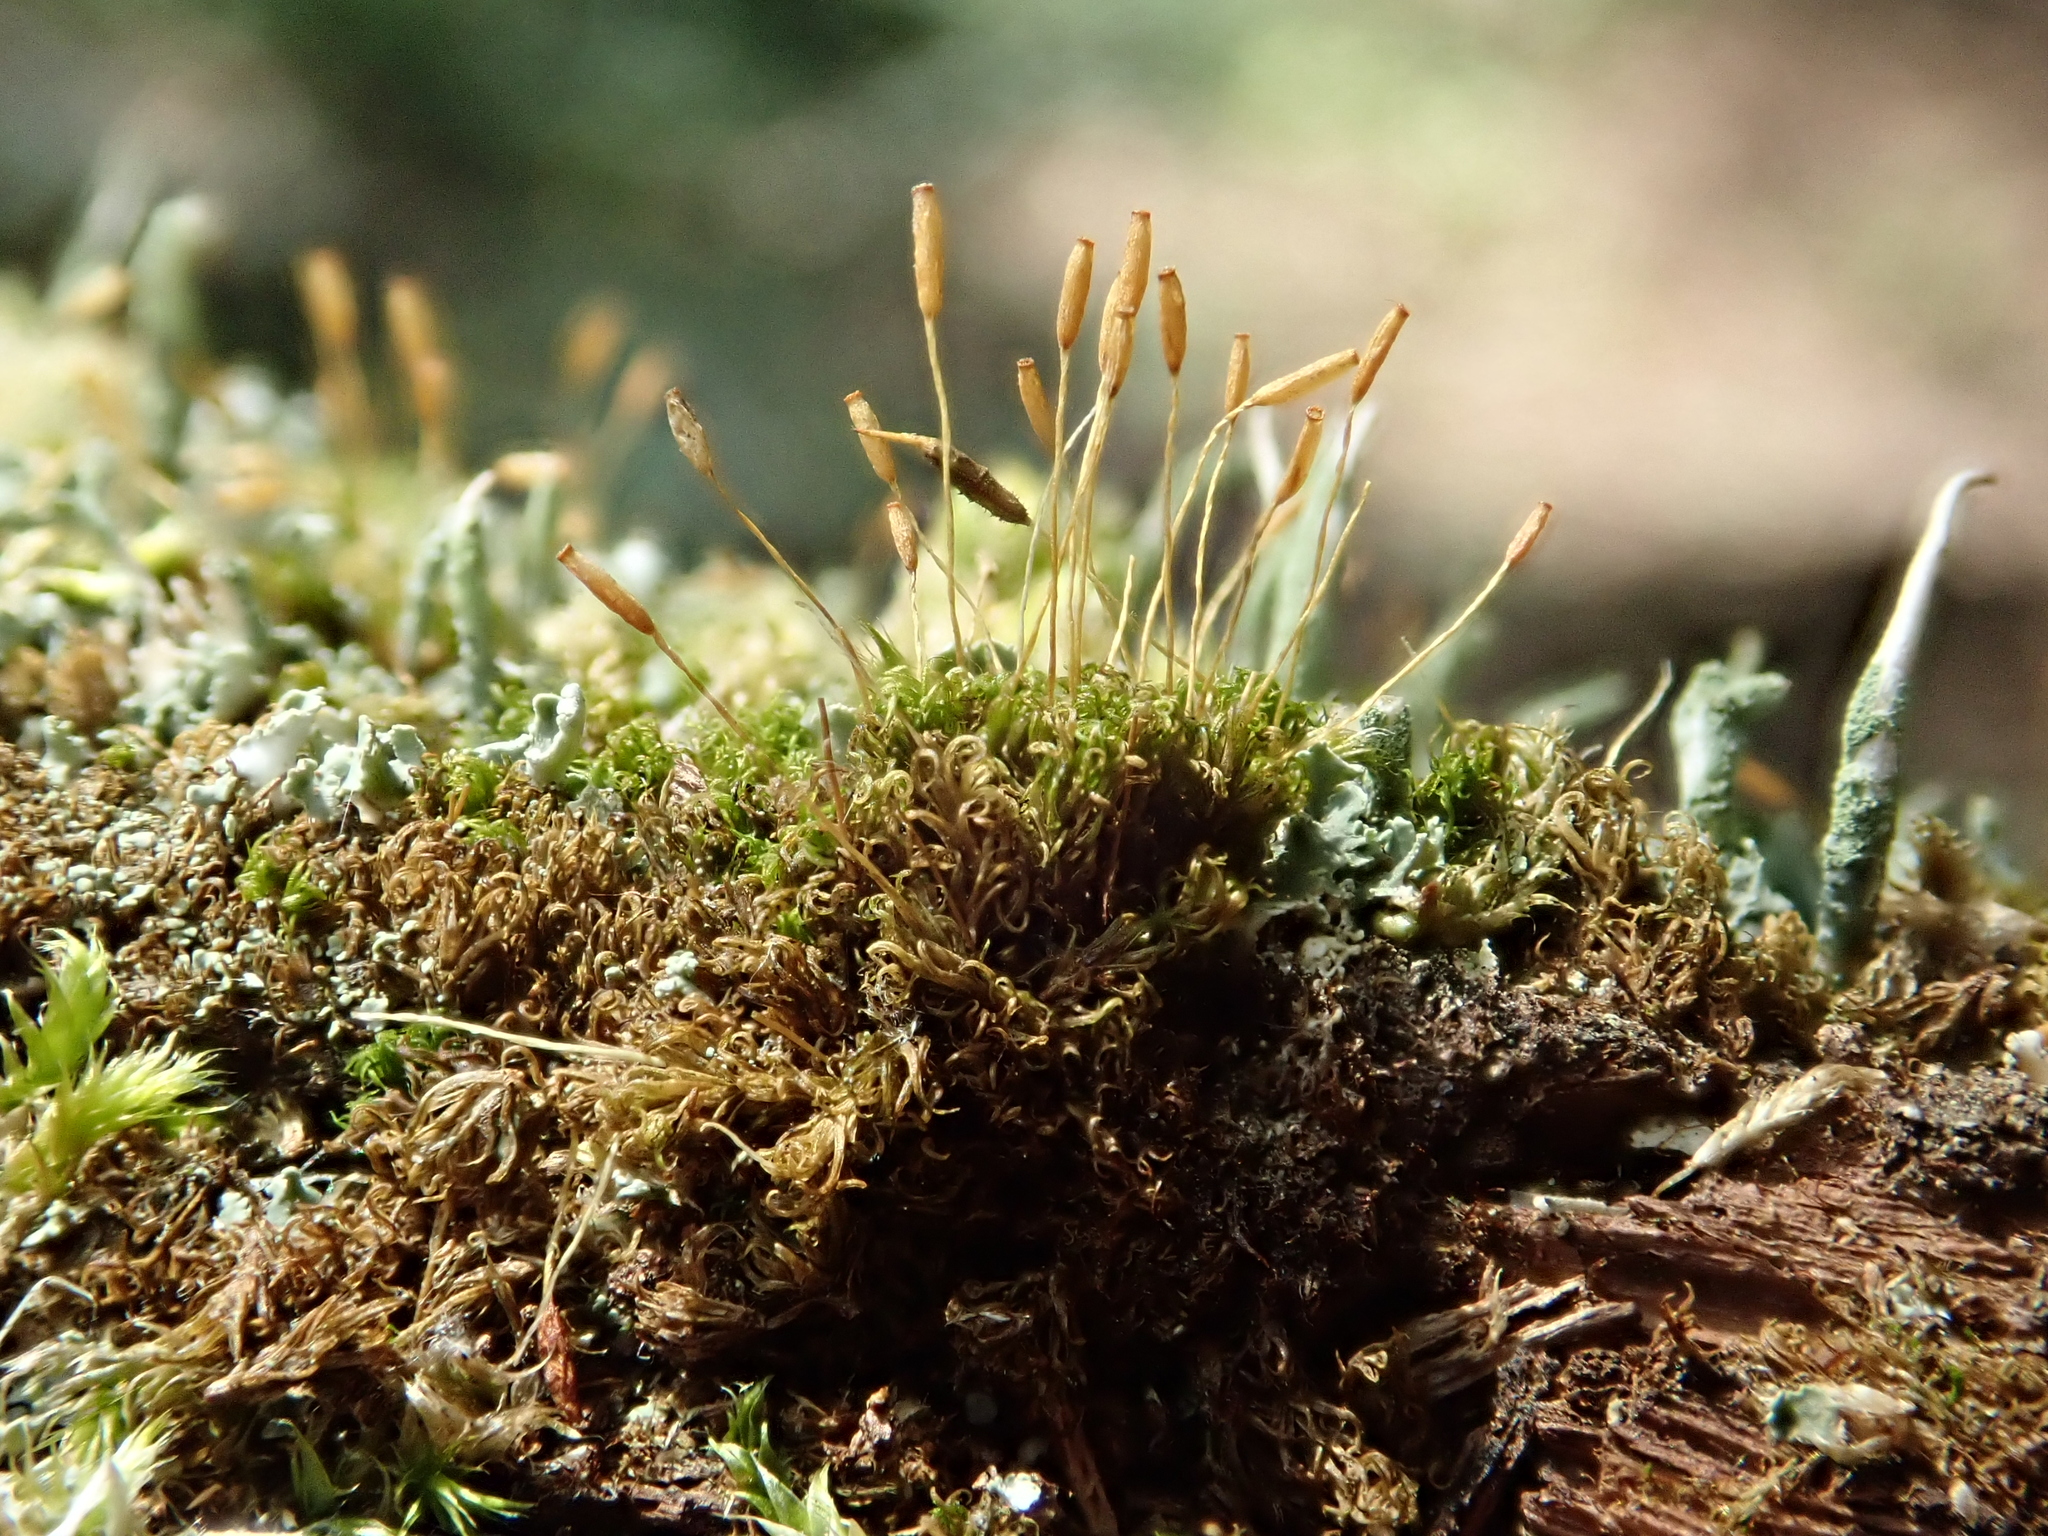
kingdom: Plantae
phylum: Bryophyta
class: Bryopsida
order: Dicranales
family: Rhabdoweisiaceae
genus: Dicranoweisia
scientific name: Dicranoweisia cirrata
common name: Common pincushion
